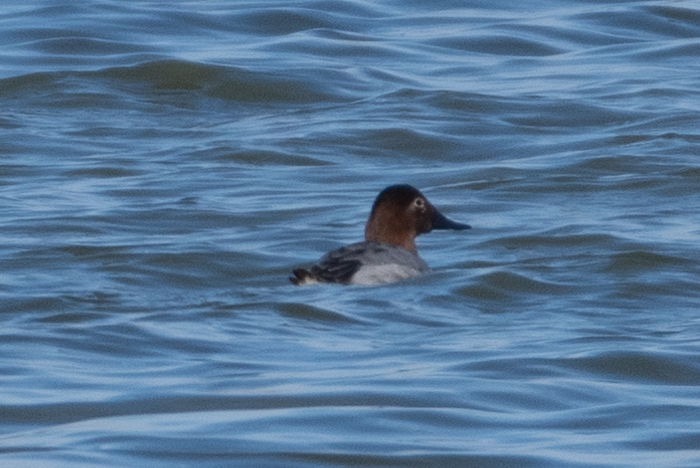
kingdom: Animalia
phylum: Chordata
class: Aves
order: Anseriformes
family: Anatidae
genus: Aythya
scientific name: Aythya valisineria
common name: Canvasback
